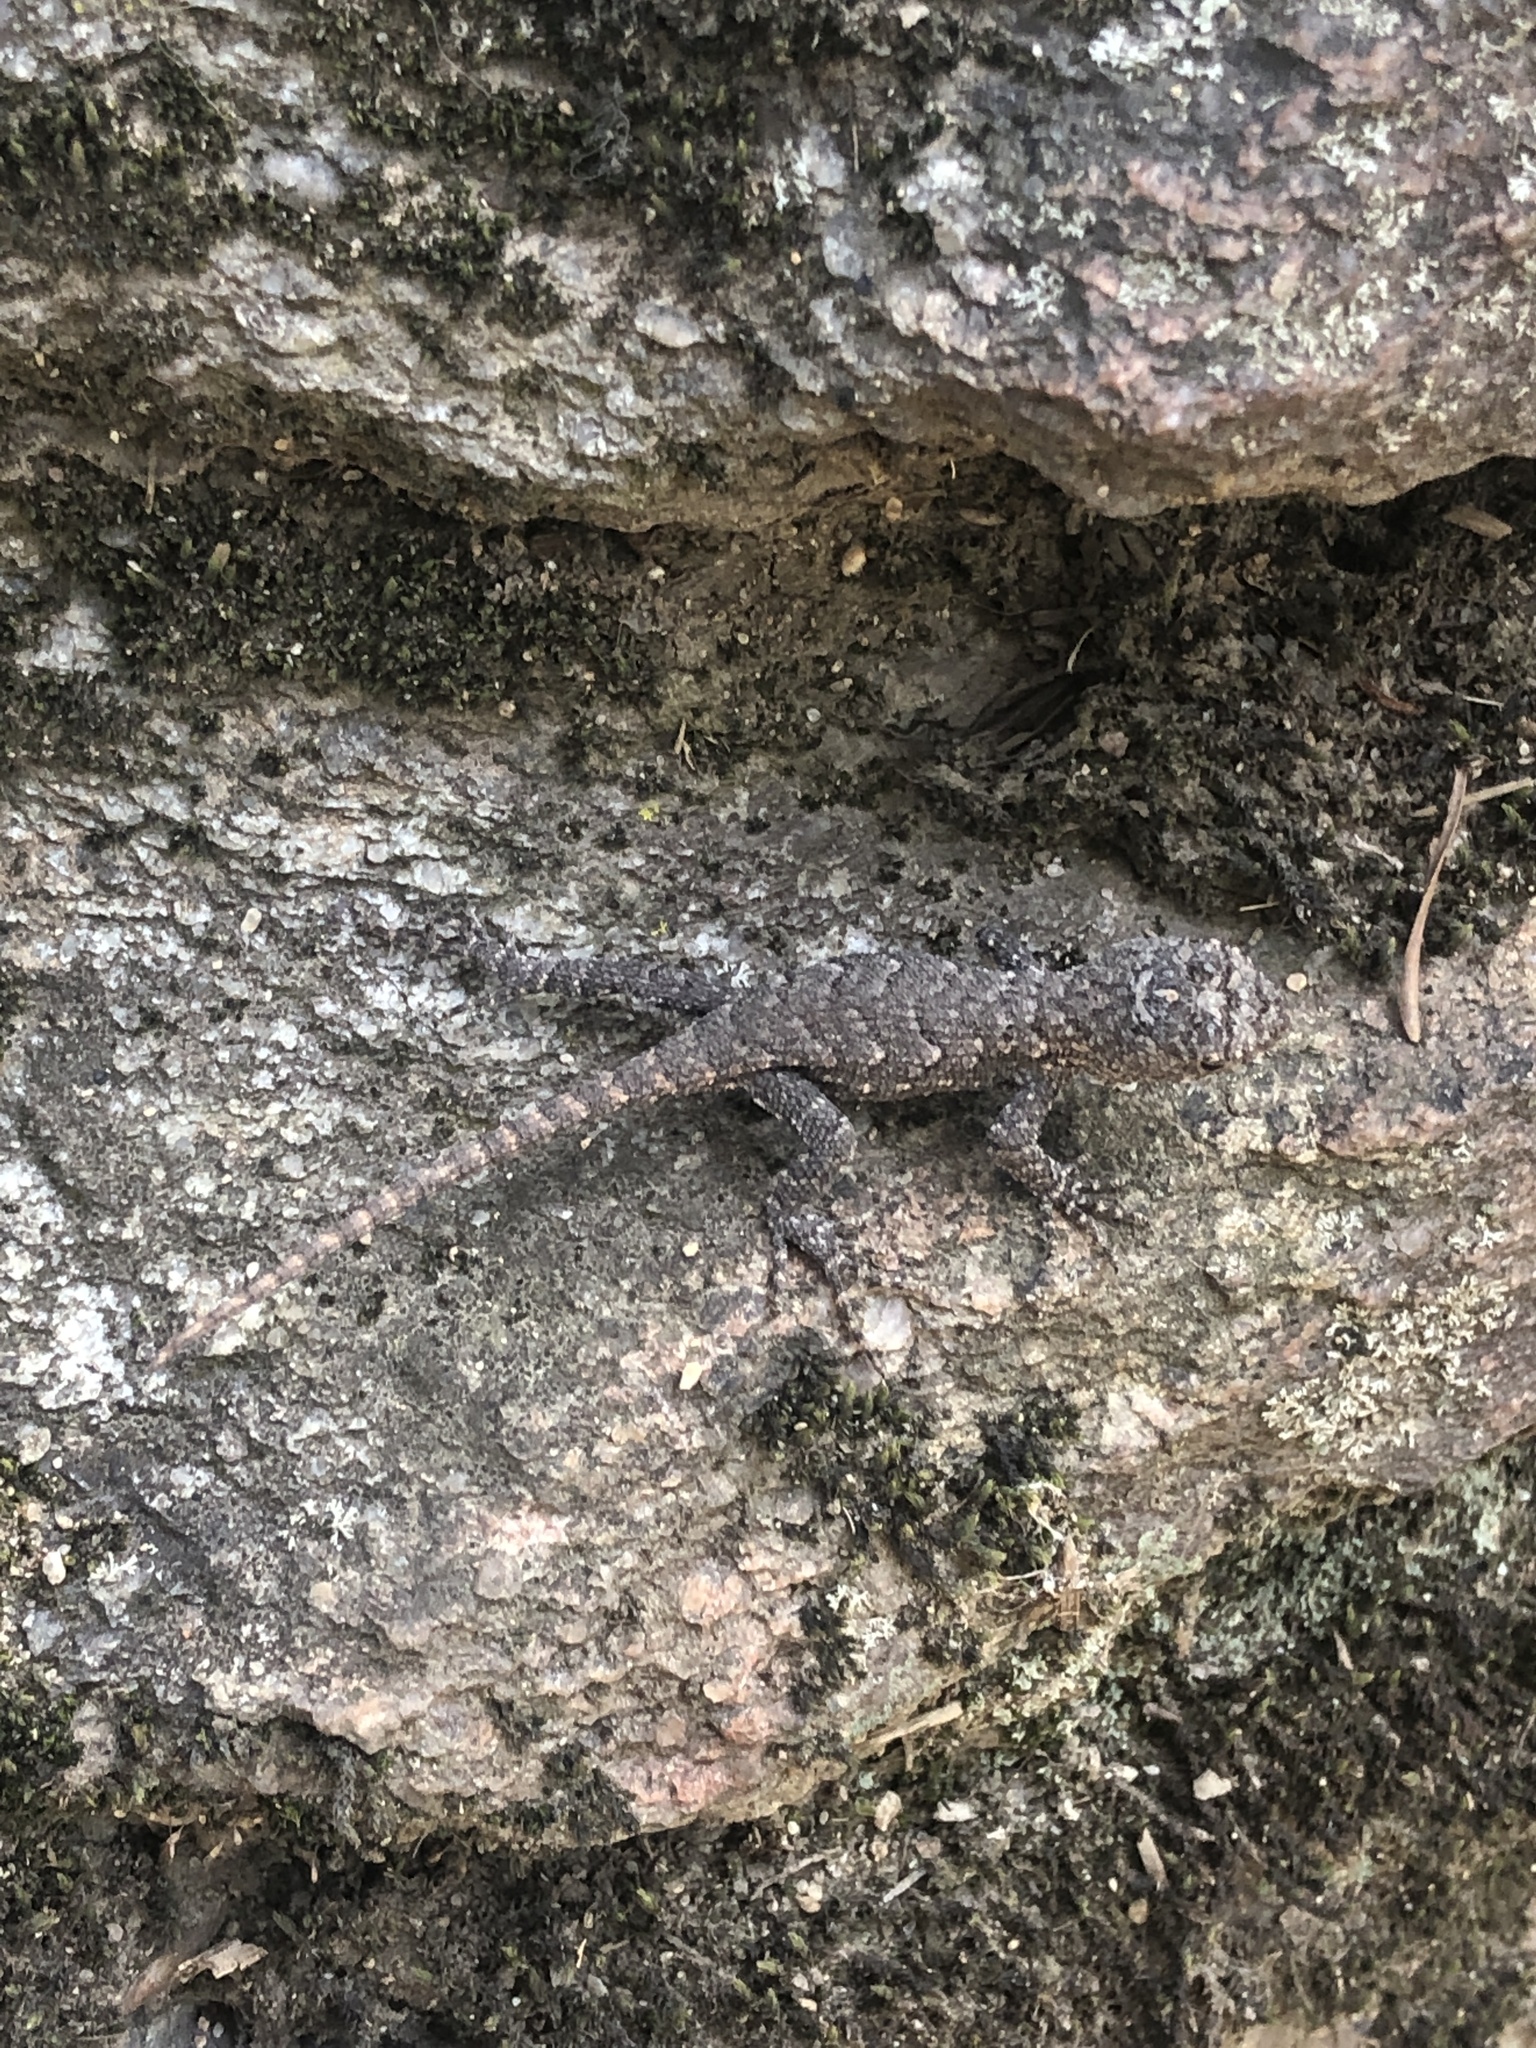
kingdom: Animalia
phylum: Chordata
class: Squamata
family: Phrynosomatidae
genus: Sceloporus
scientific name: Sceloporus undulatus
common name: Eastern fence lizard
